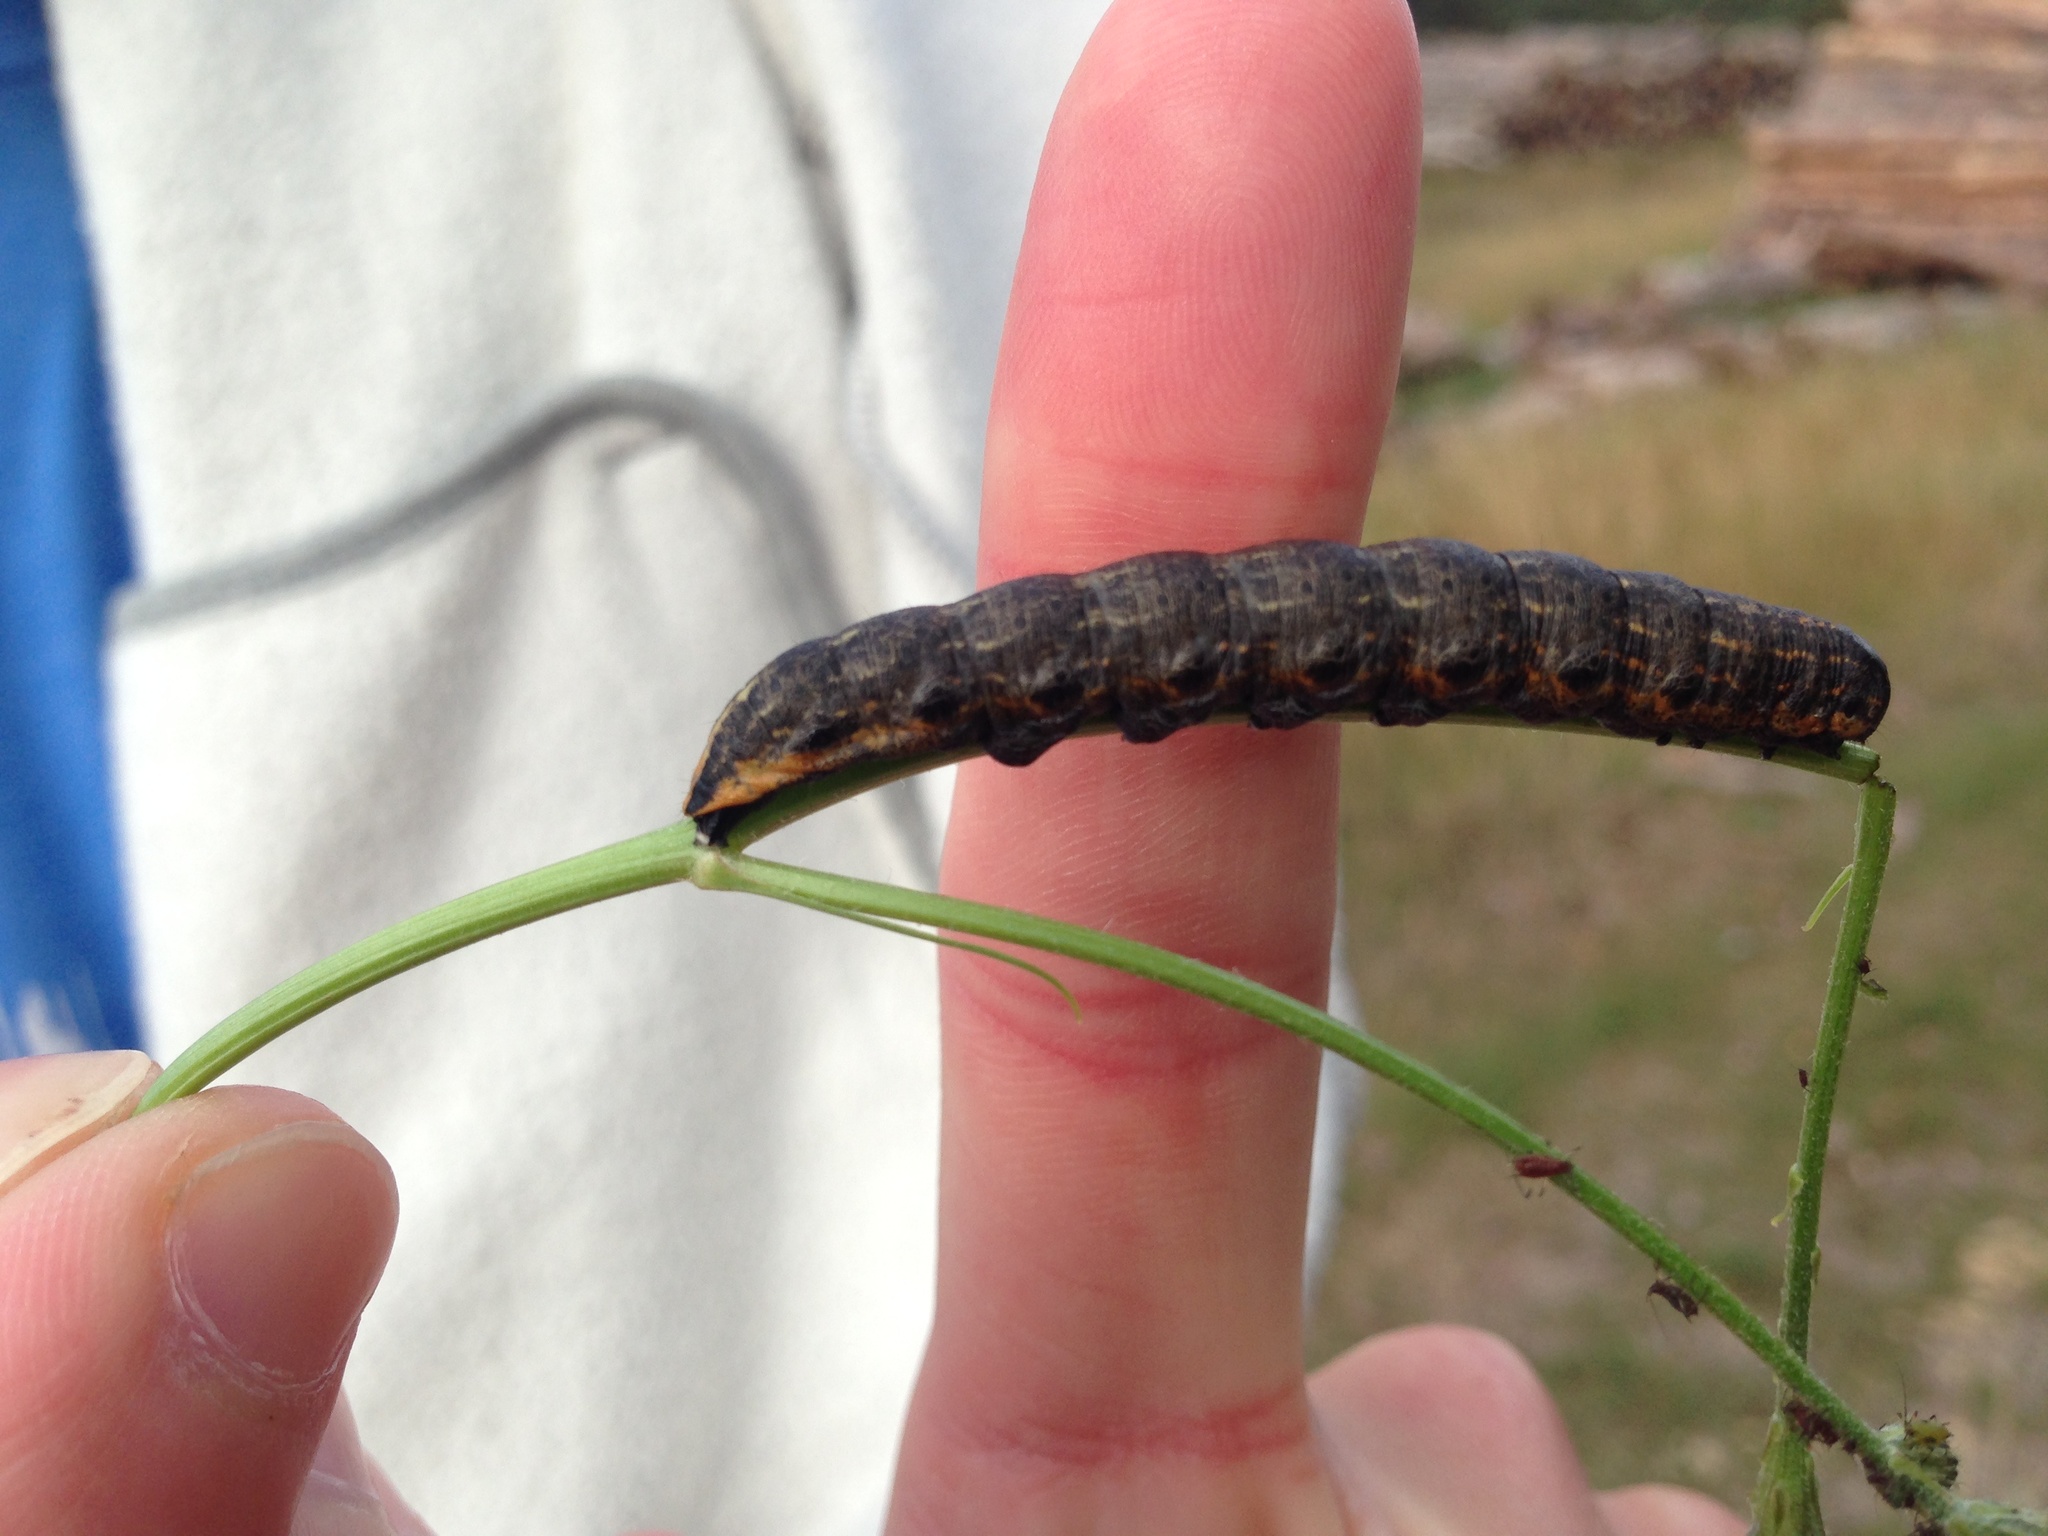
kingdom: Animalia
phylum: Arthropoda
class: Insecta
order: Lepidoptera
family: Noctuidae
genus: Cucullia
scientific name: Cucullia umbratica
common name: Shark
